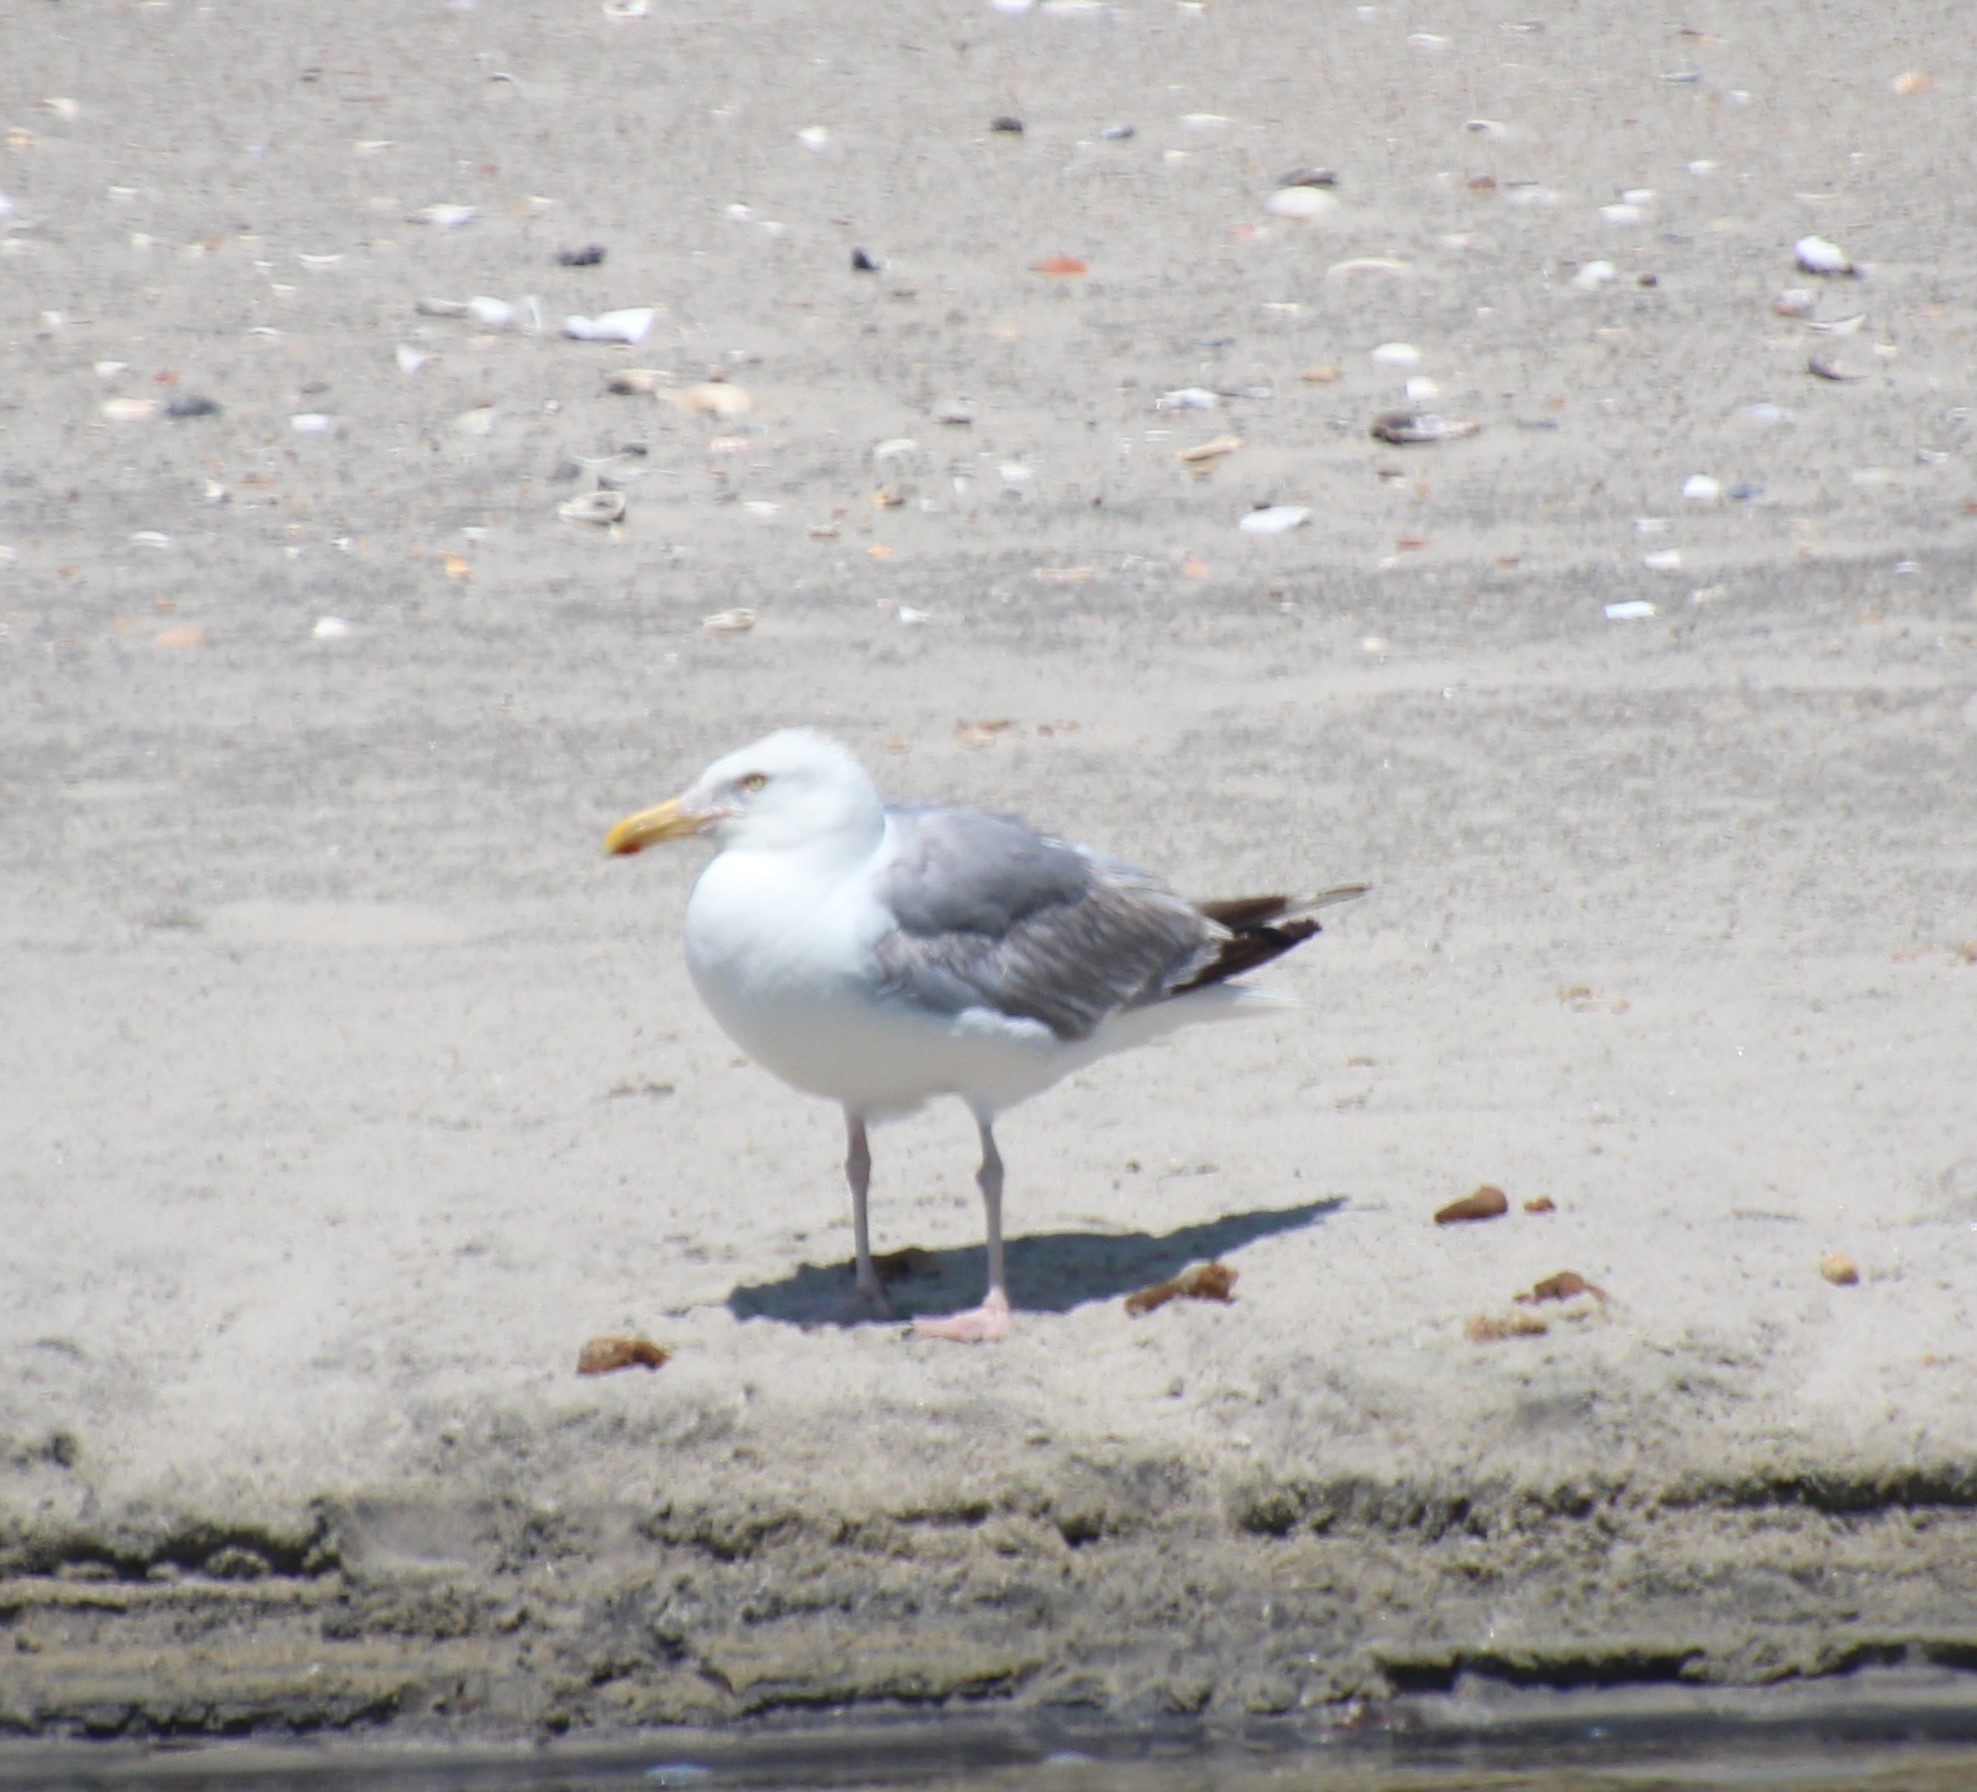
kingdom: Animalia
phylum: Chordata
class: Aves
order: Charadriiformes
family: Laridae
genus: Larus
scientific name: Larus argentatus
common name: Herring gull
